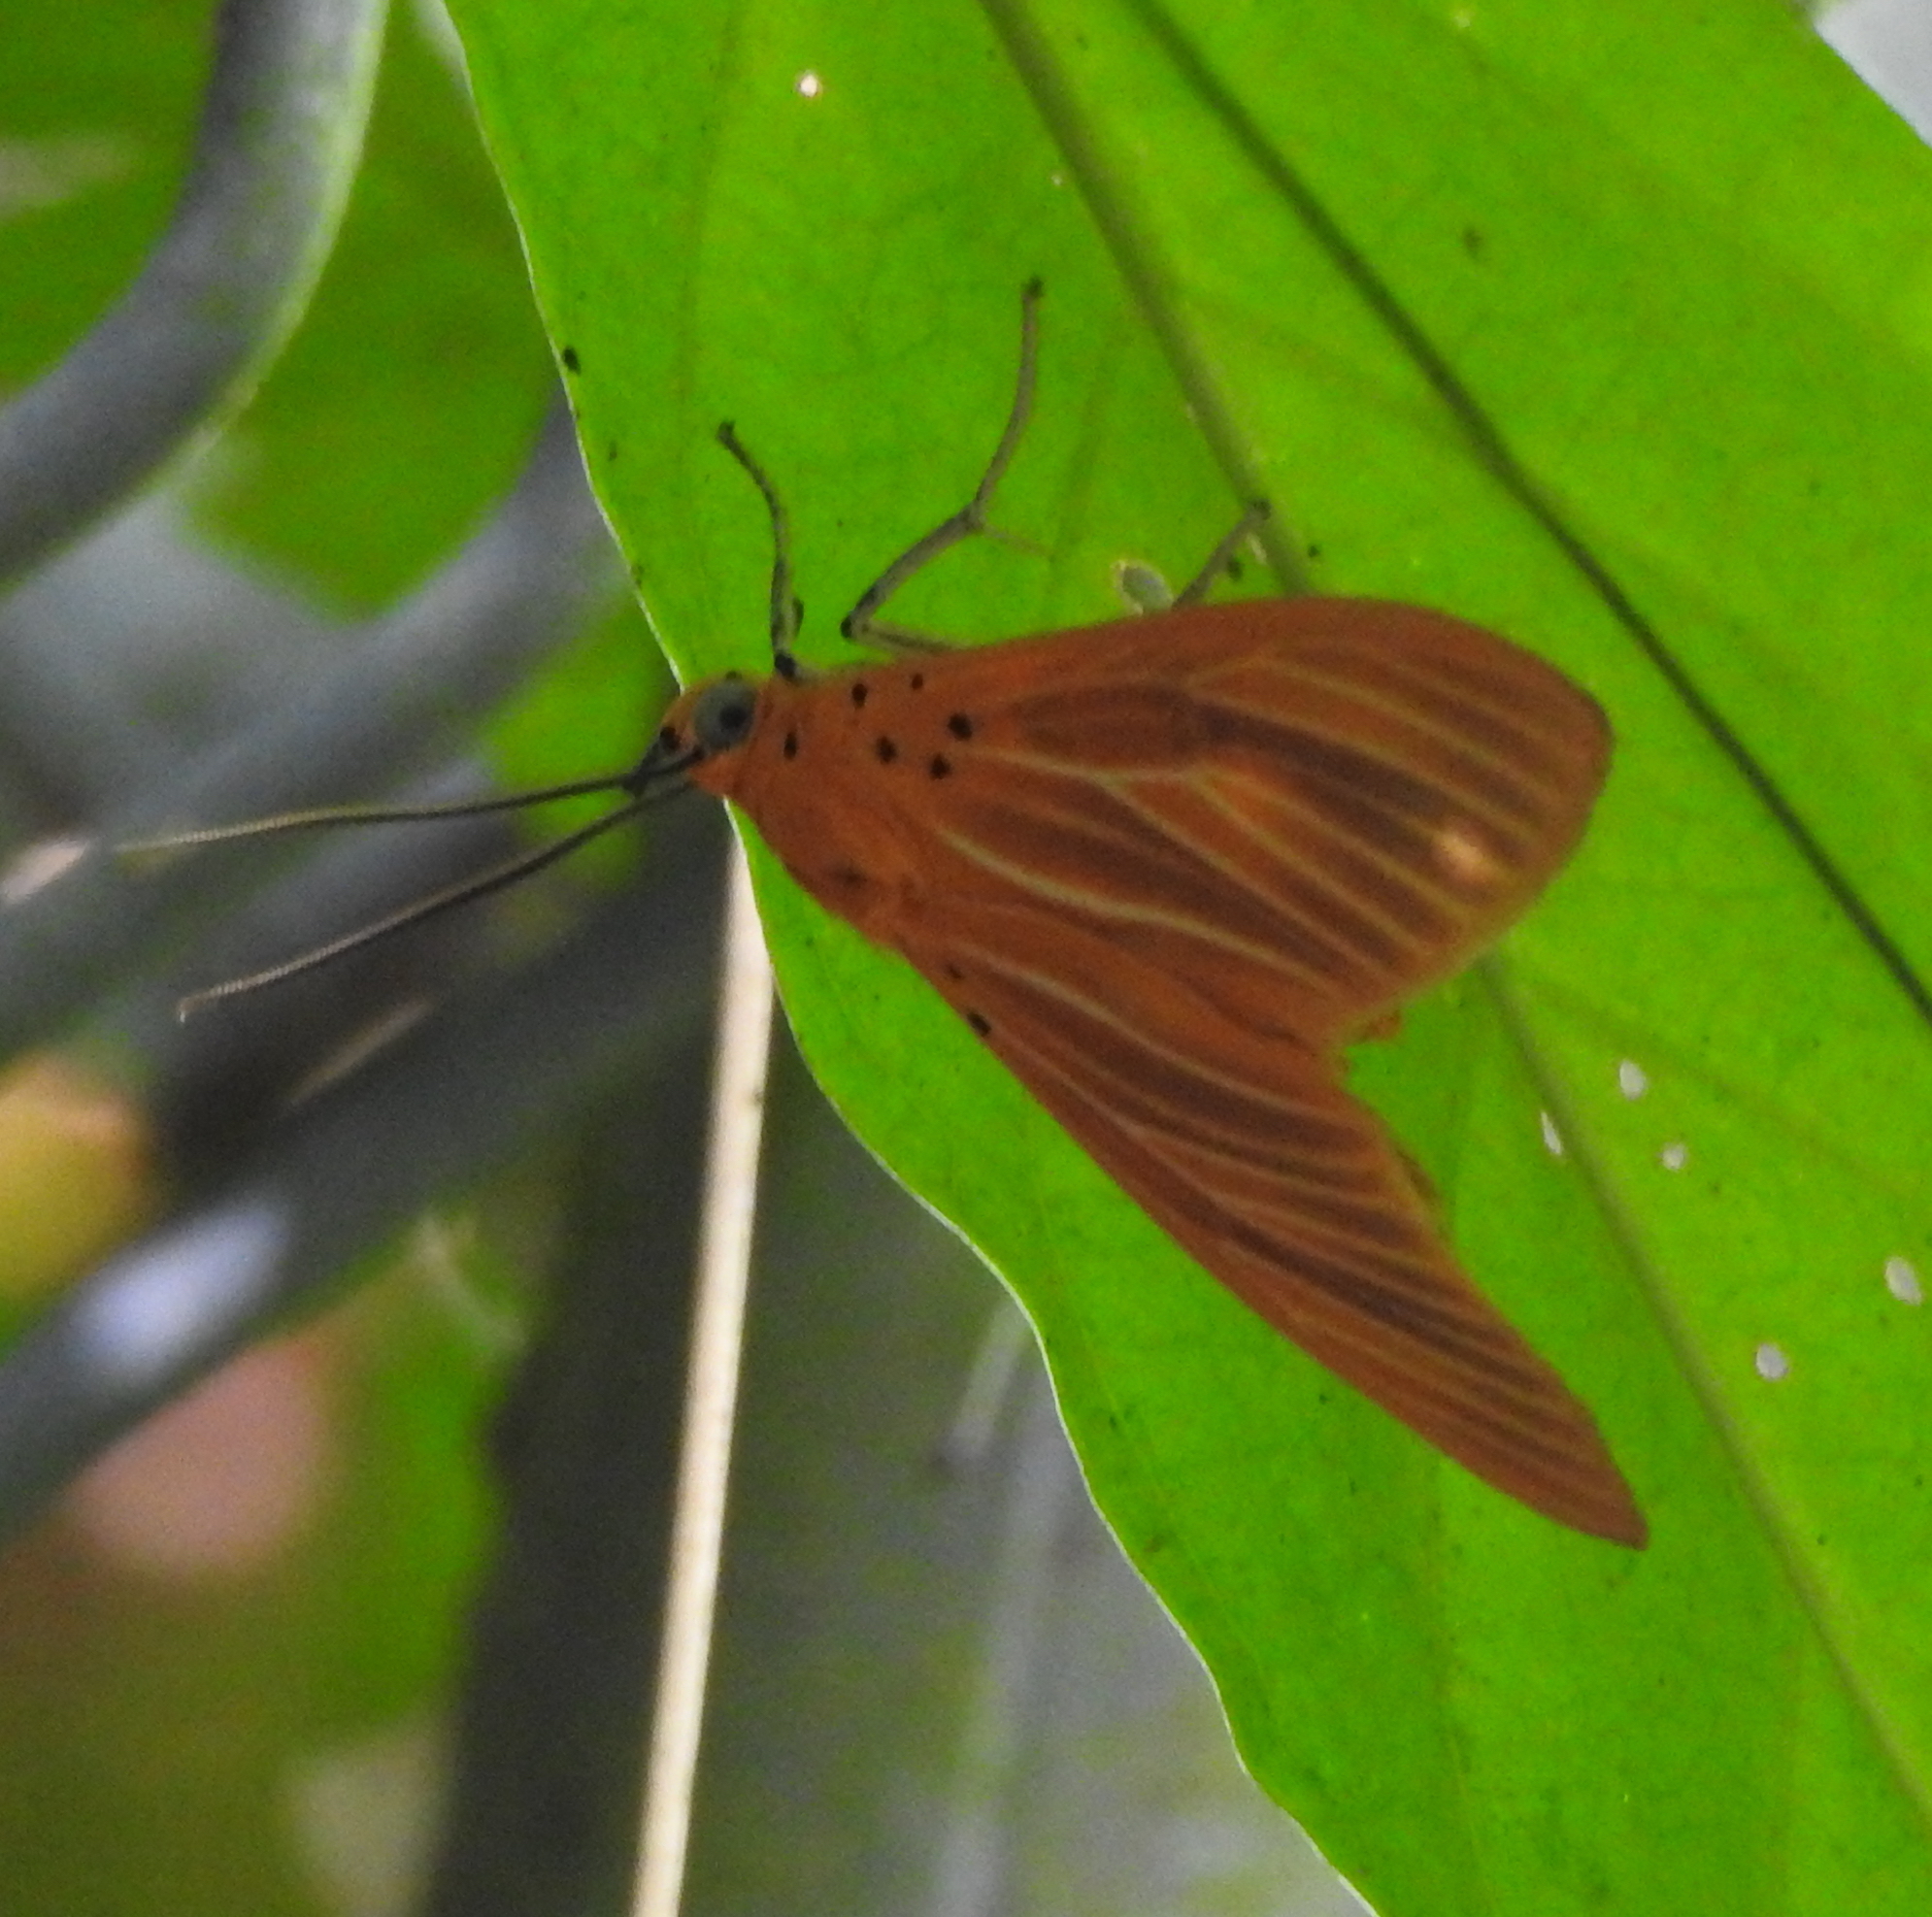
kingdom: Animalia
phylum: Arthropoda
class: Insecta
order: Lepidoptera
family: Erebidae
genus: Asota
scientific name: Asota egens
